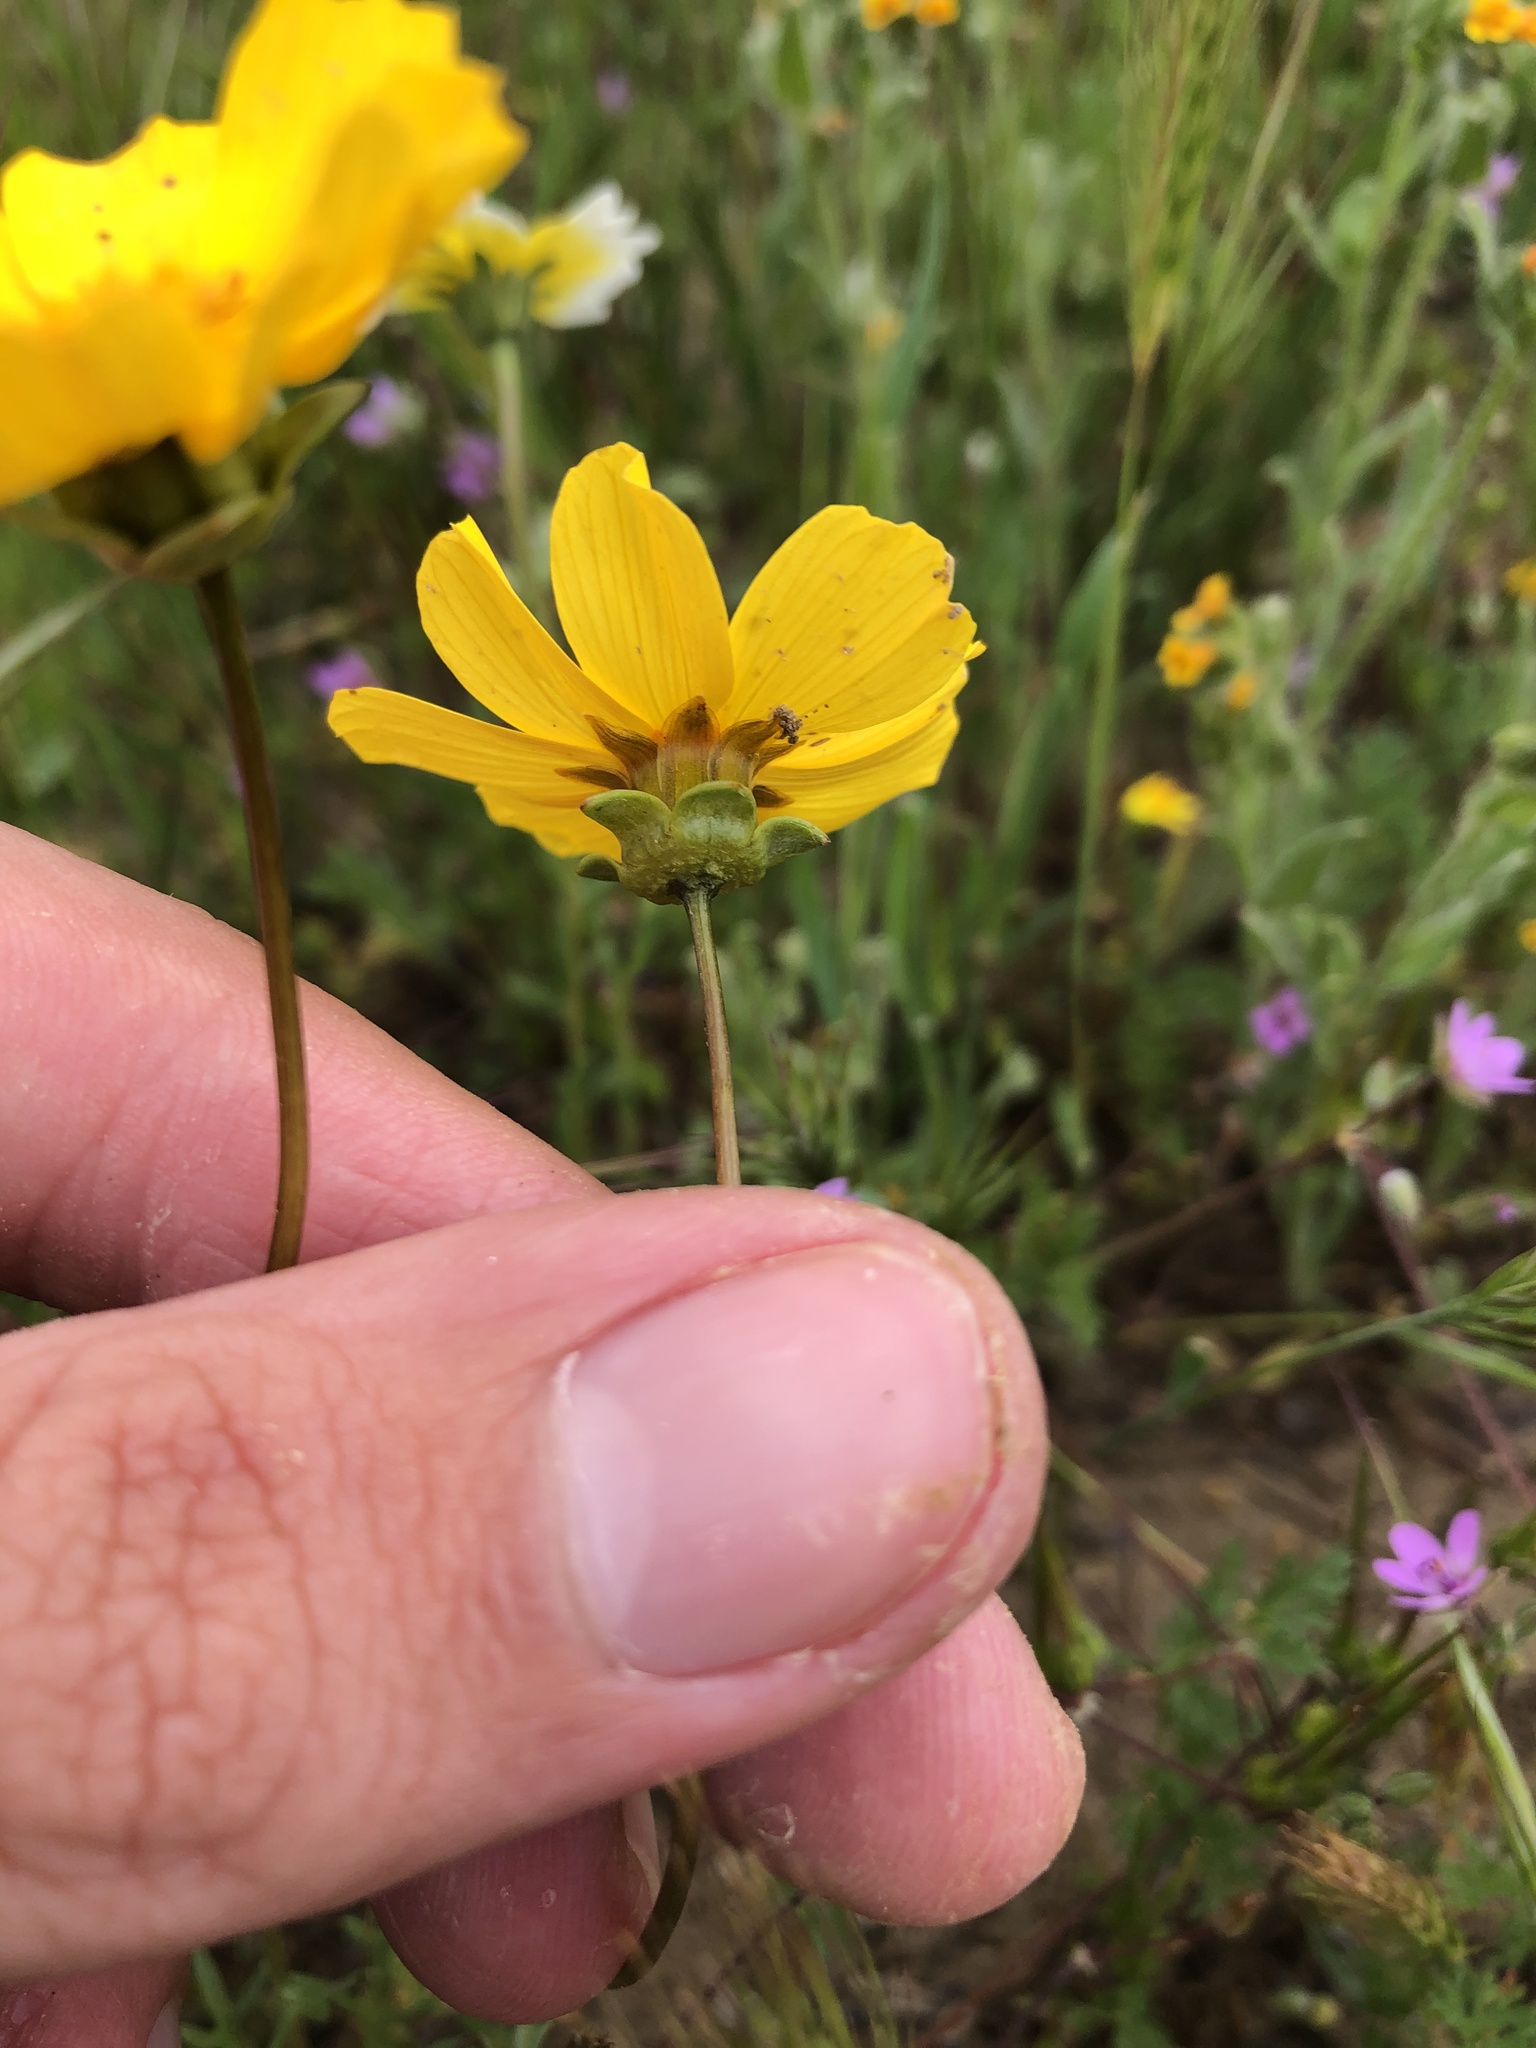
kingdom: Plantae
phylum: Tracheophyta
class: Magnoliopsida
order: Asterales
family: Asteraceae
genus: Coreopsis
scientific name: Coreopsis calliopsidea
